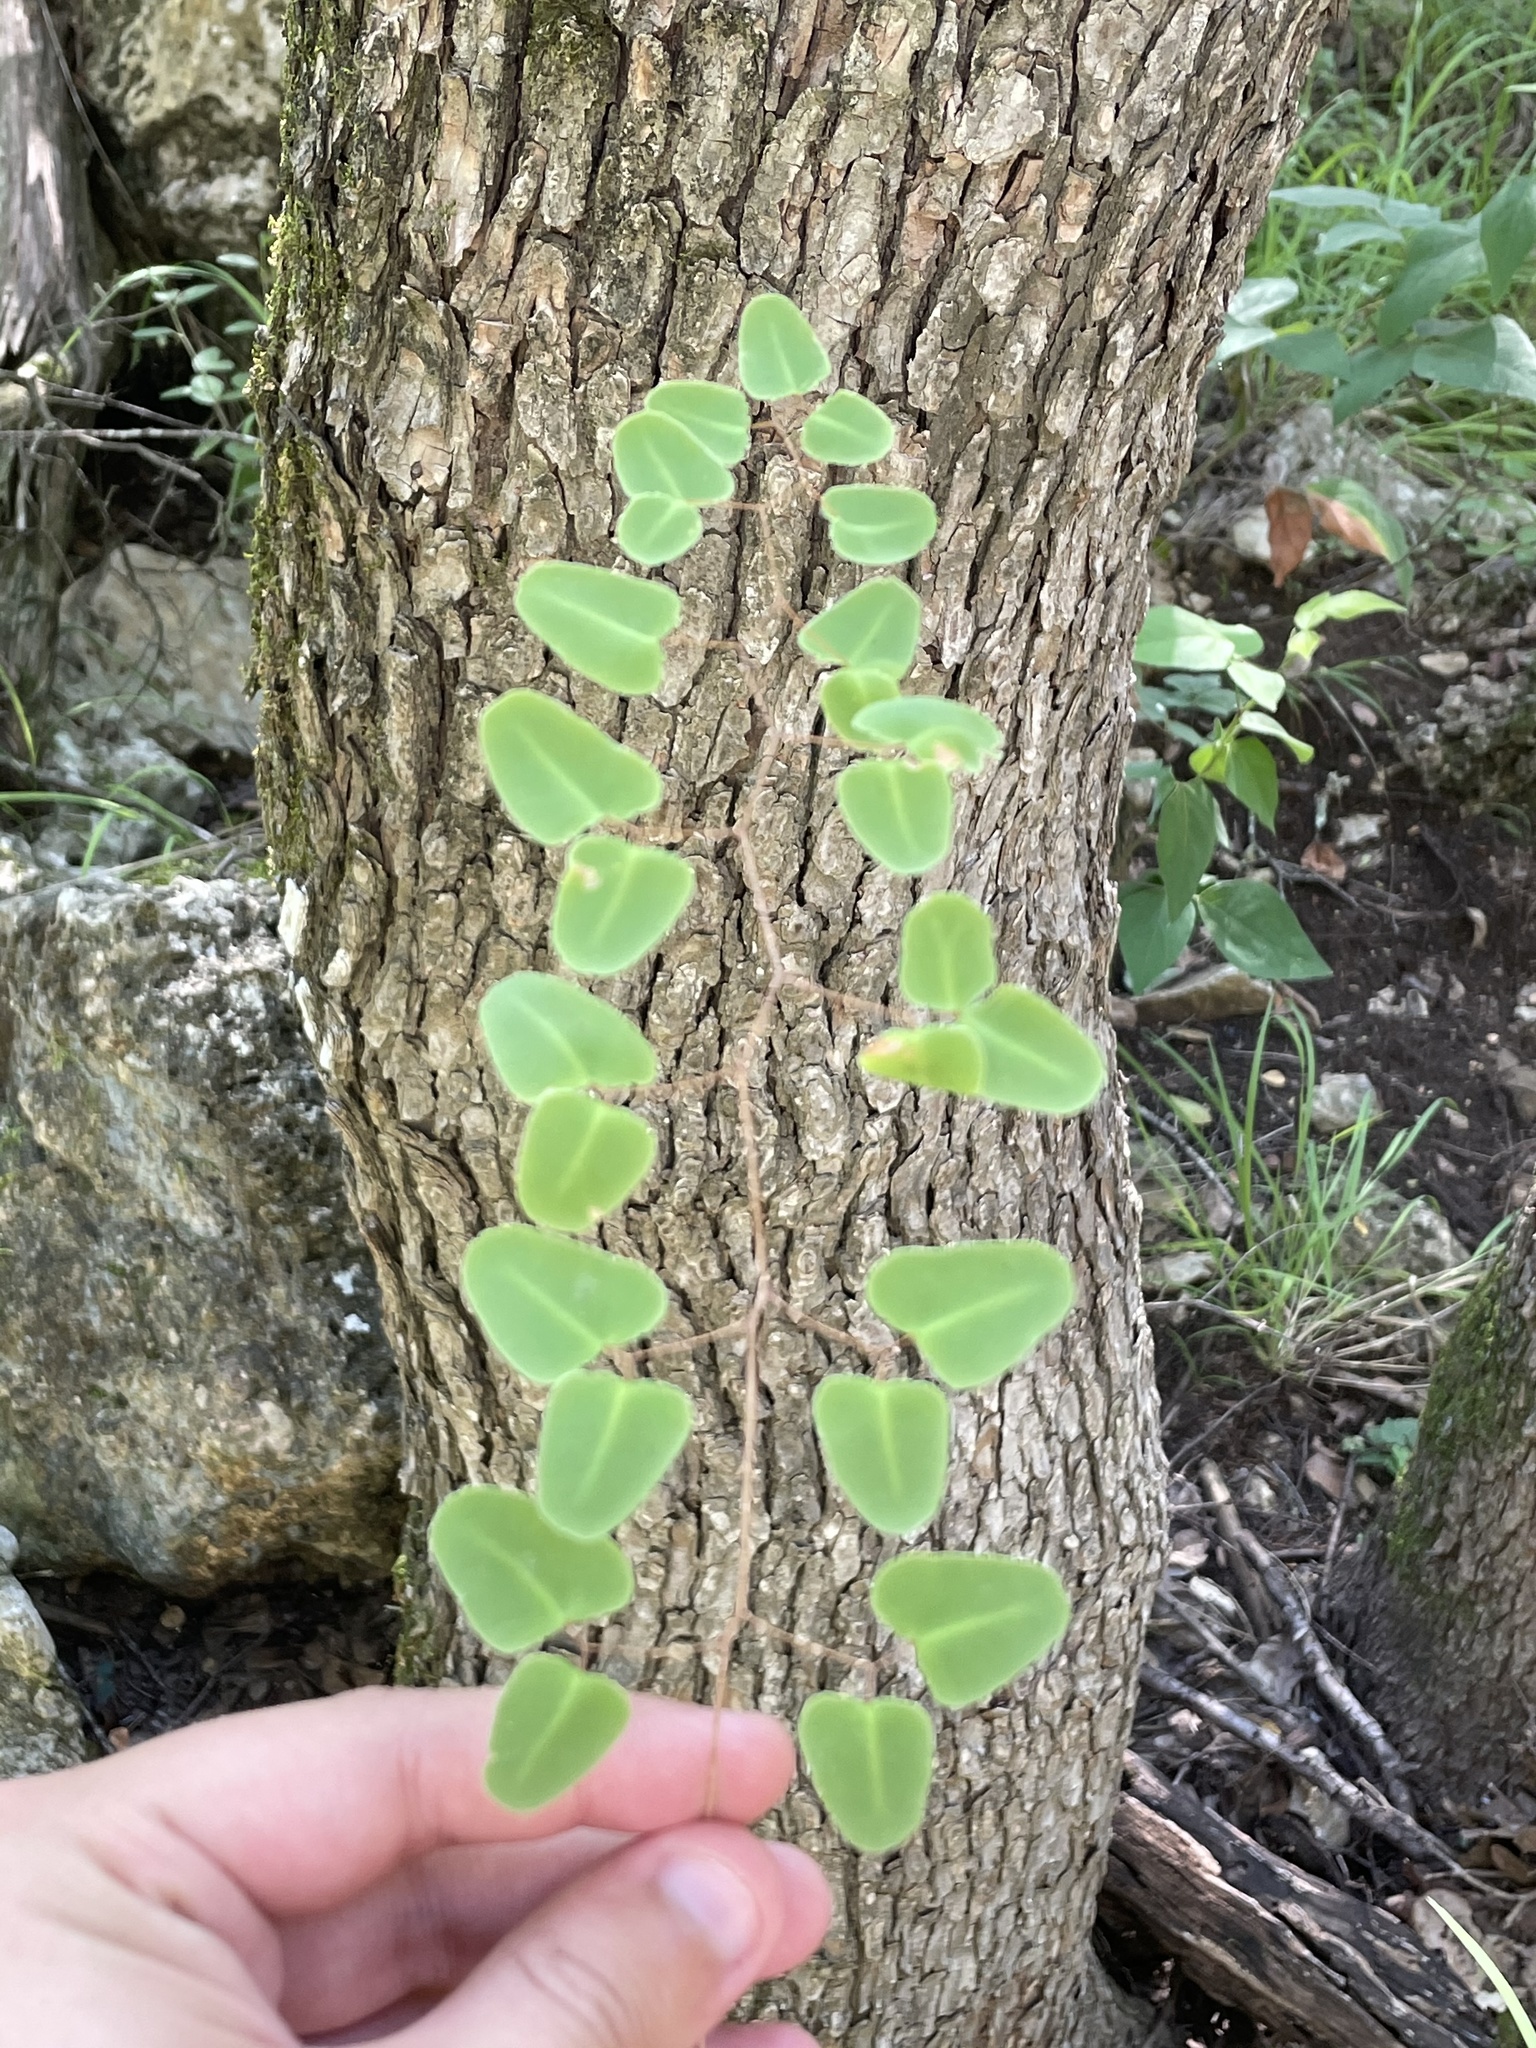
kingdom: Plantae
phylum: Tracheophyta
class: Polypodiopsida
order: Polypodiales
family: Pteridaceae
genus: Pellaea
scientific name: Pellaea ovata
